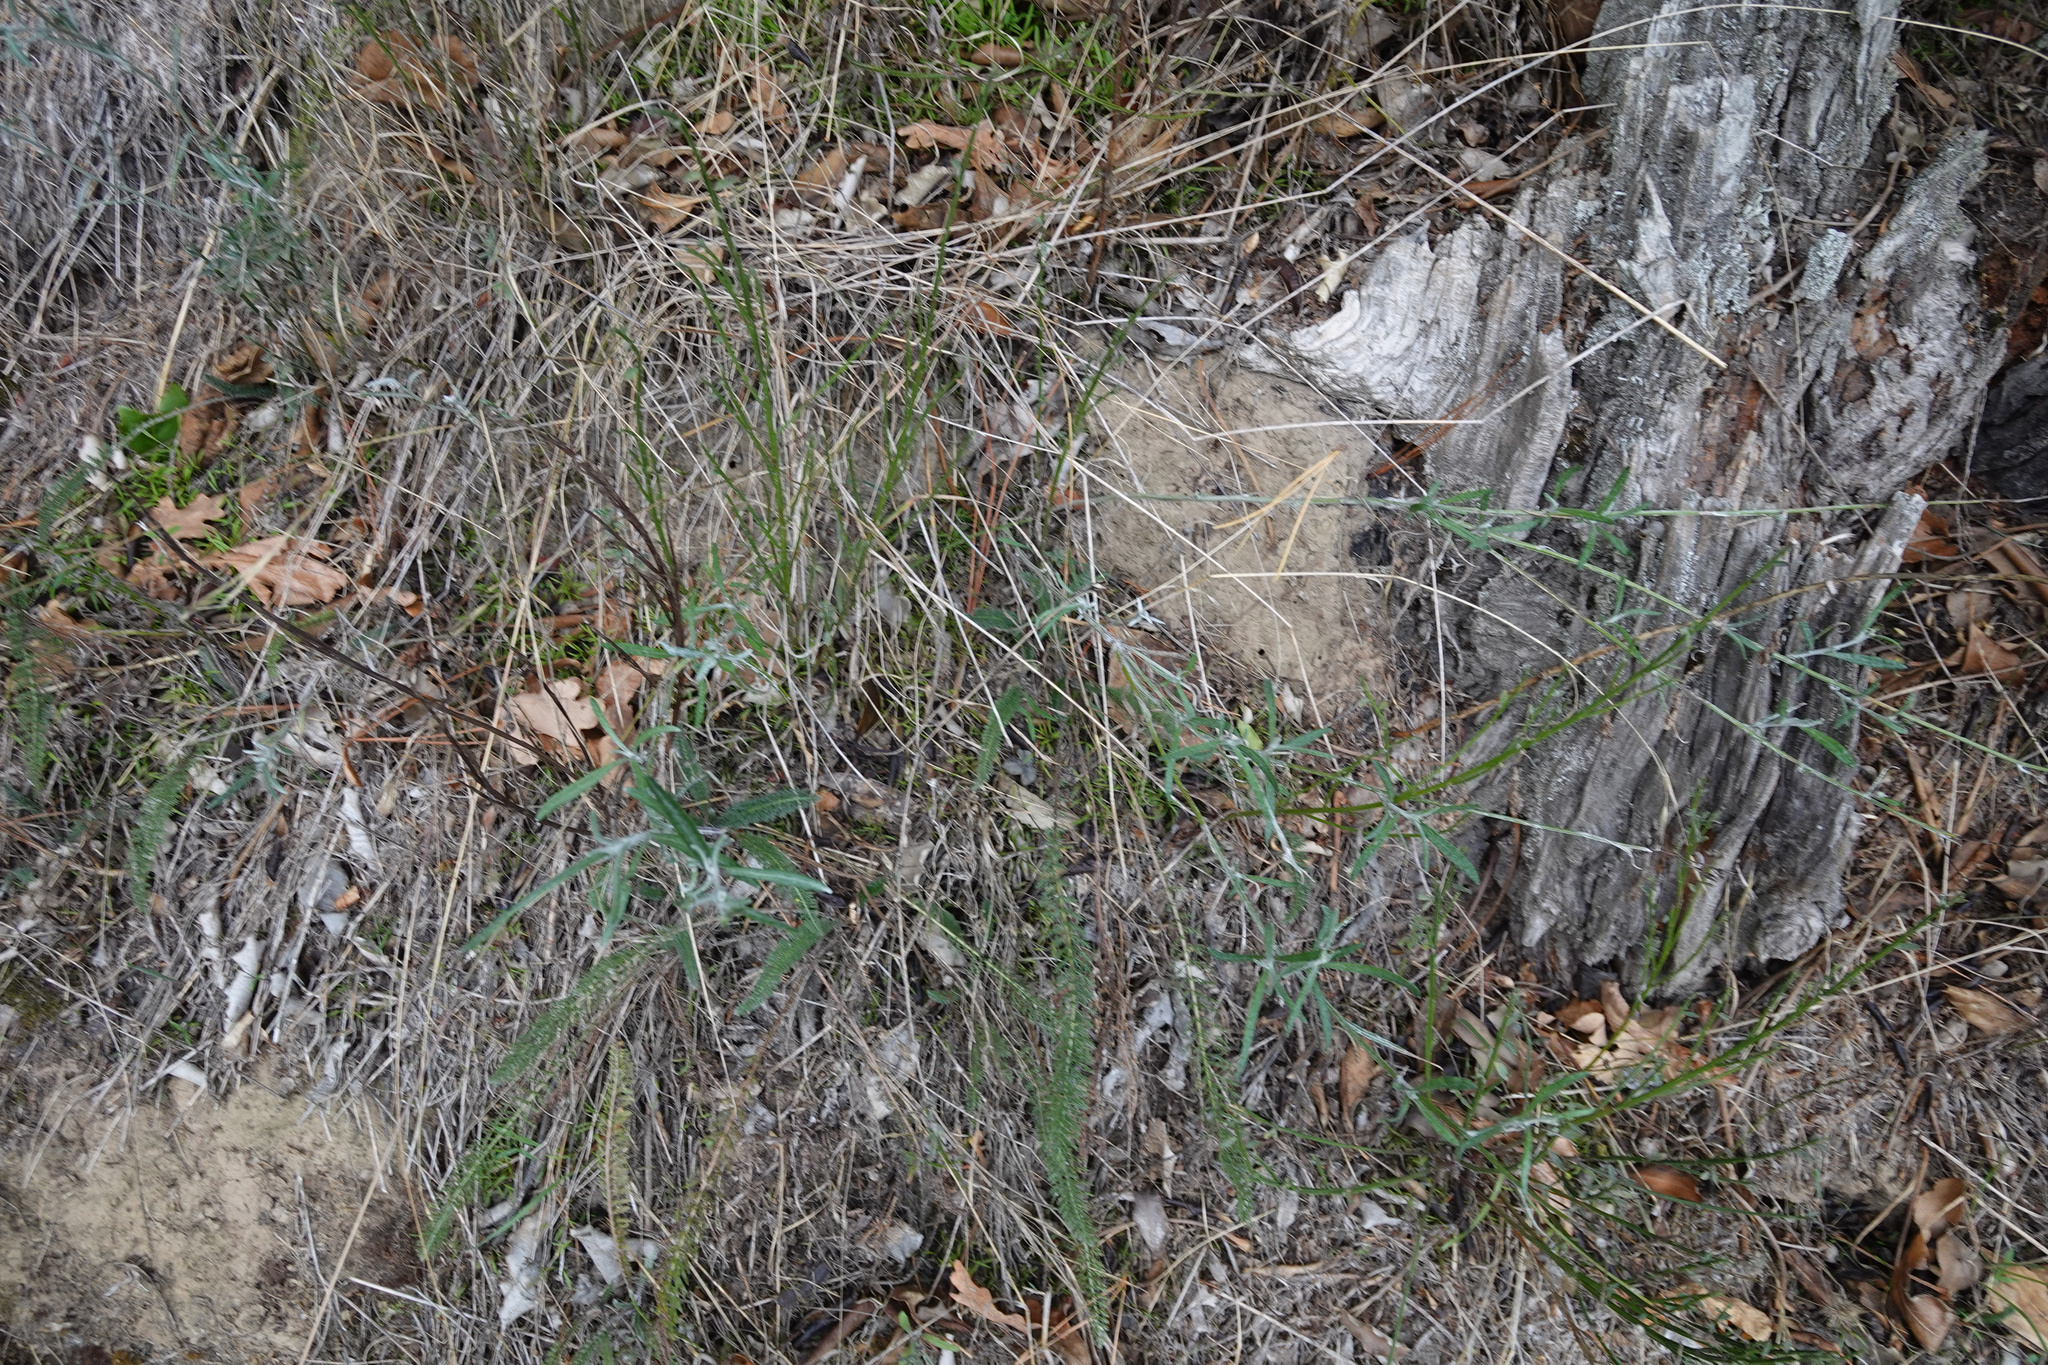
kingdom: Plantae
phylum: Tracheophyta
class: Magnoliopsida
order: Asterales
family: Asteraceae
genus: Senecio
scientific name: Senecio quadridentatus
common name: Cotton fireweed
